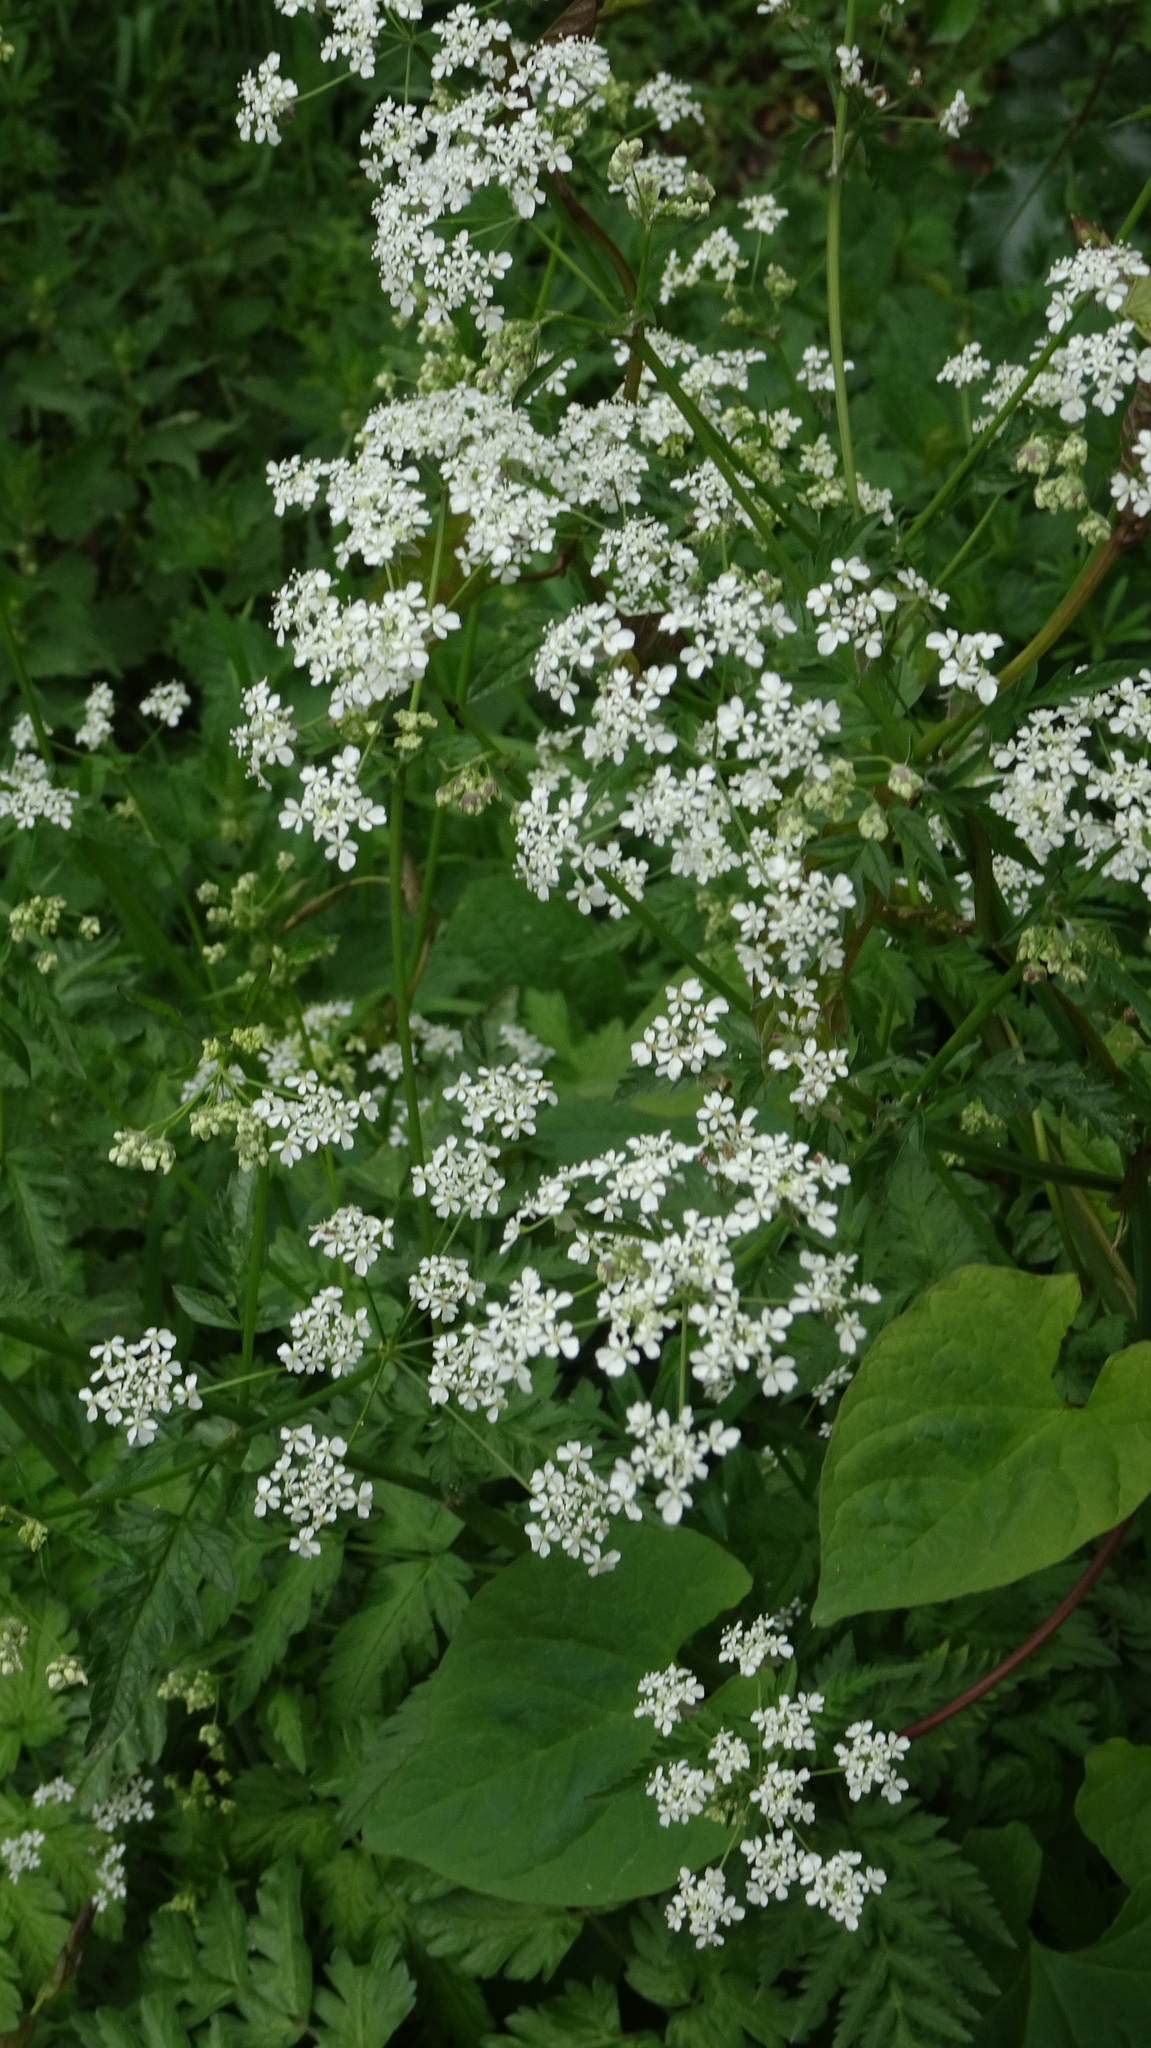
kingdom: Plantae
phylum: Tracheophyta
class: Magnoliopsida
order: Apiales
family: Apiaceae
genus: Anthriscus
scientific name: Anthriscus sylvestris
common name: Cow parsley
